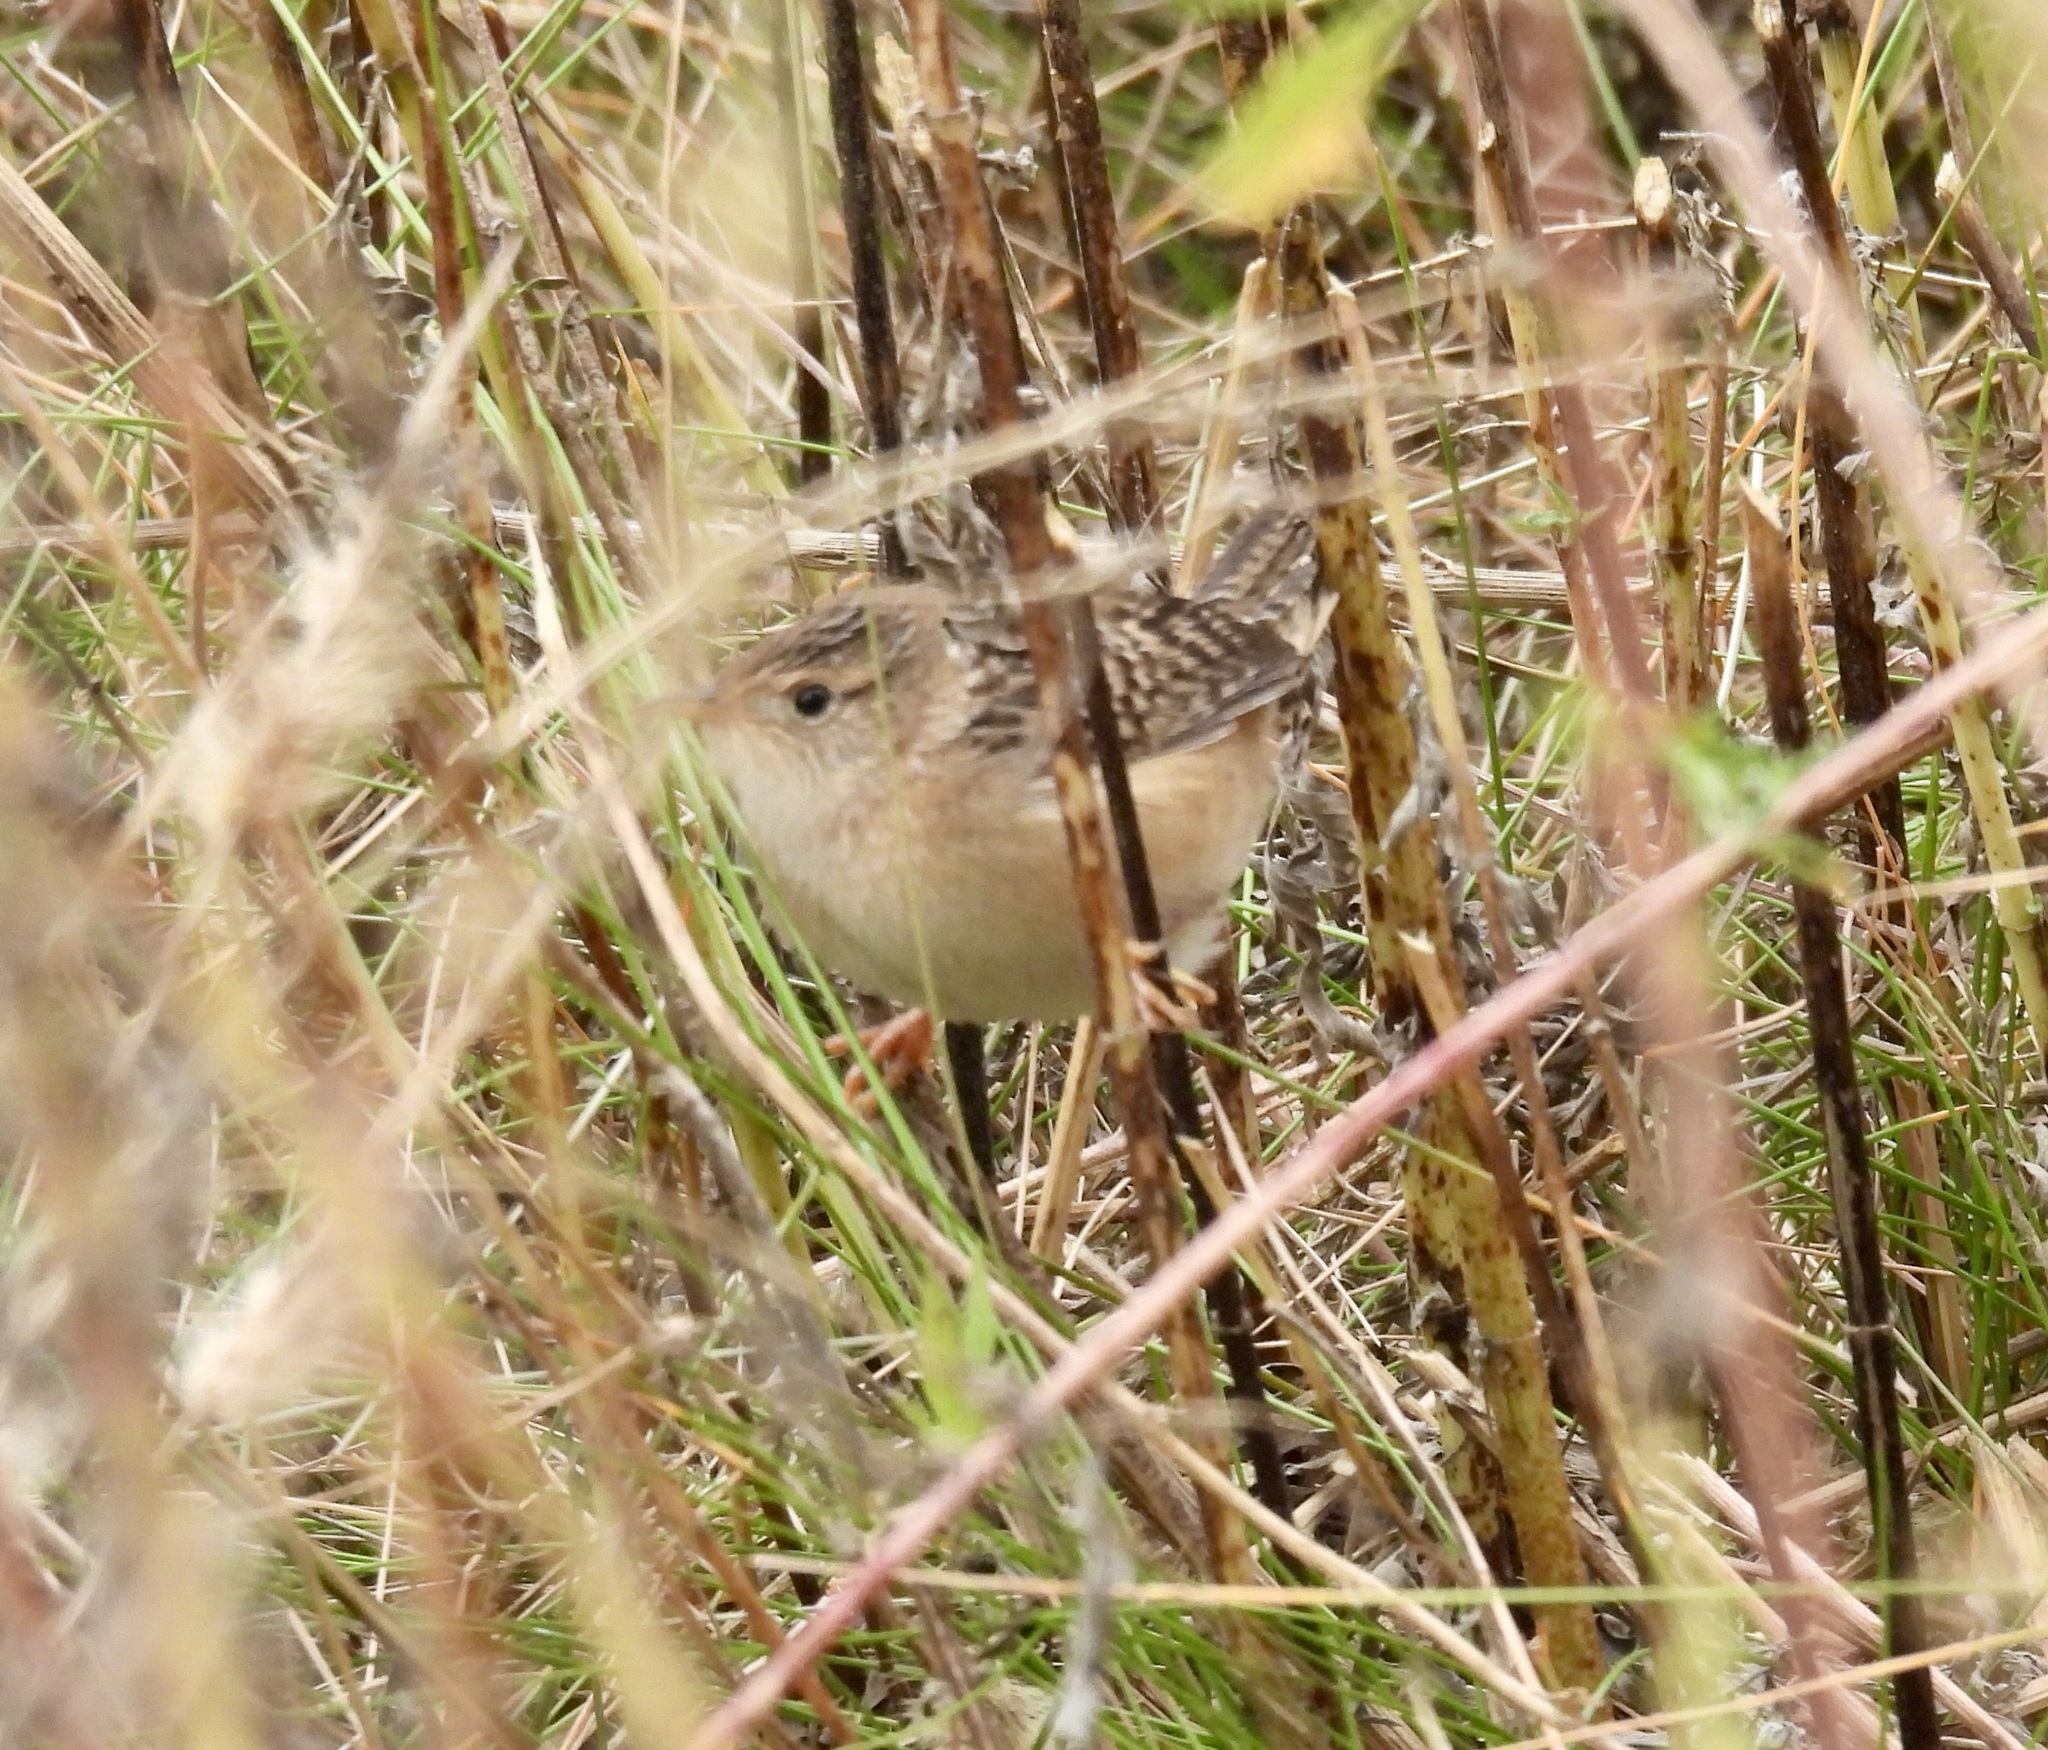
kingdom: Animalia
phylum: Chordata
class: Aves
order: Passeriformes
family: Troglodytidae
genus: Cistothorus
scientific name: Cistothorus platensis
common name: Sedge wren
